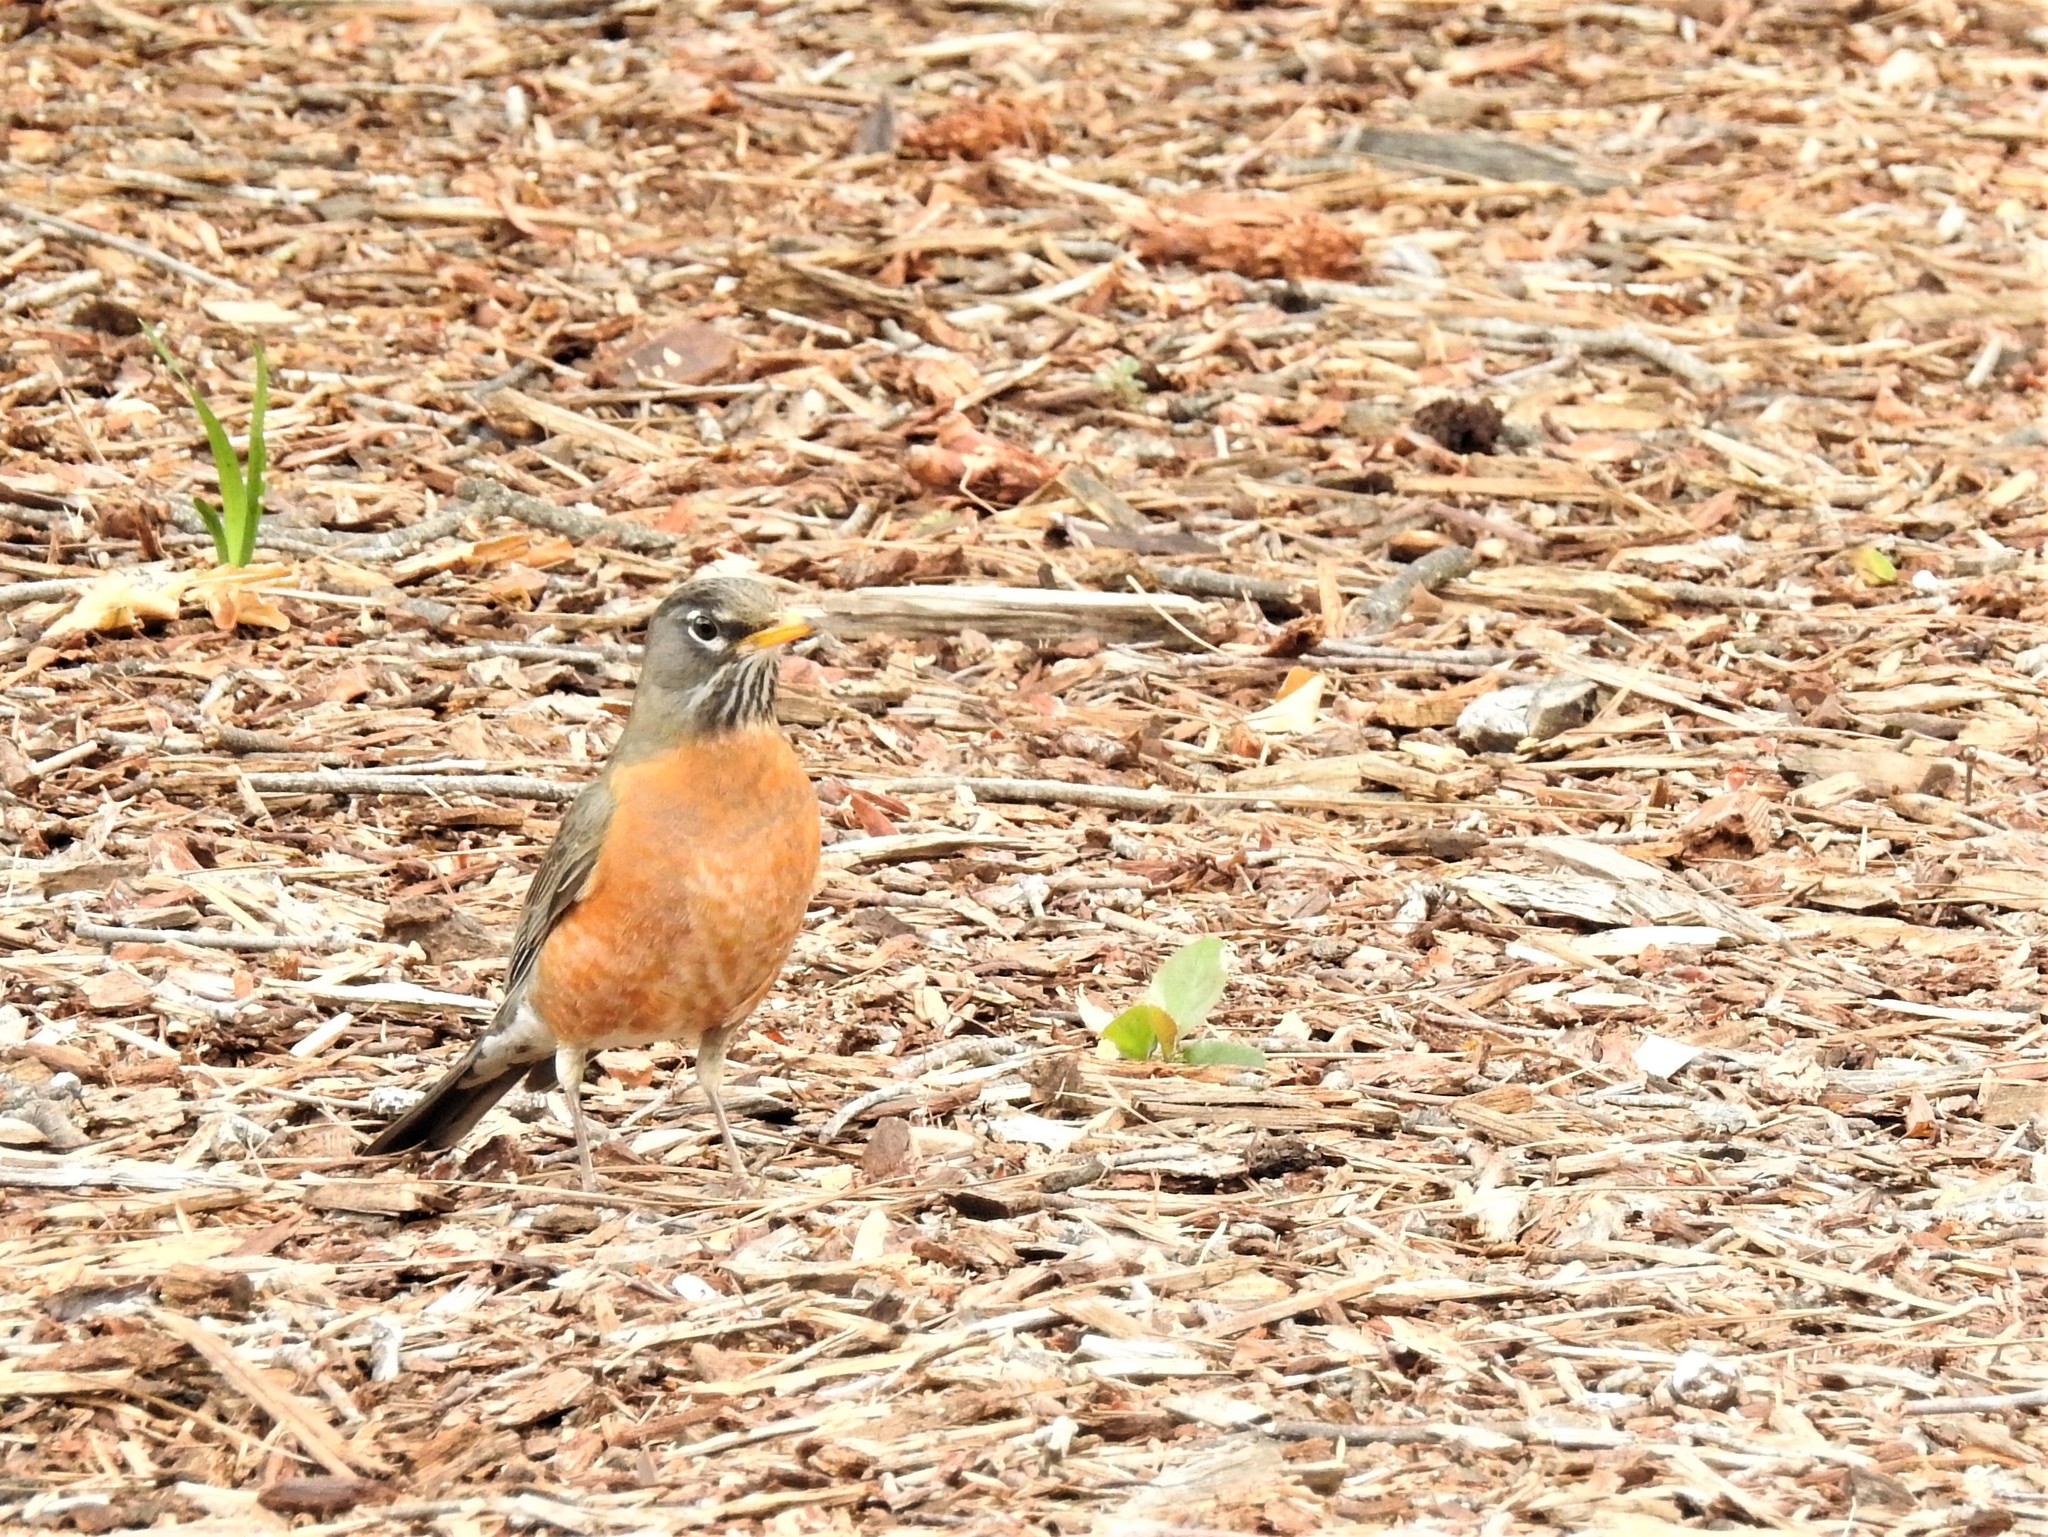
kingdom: Animalia
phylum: Chordata
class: Aves
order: Passeriformes
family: Turdidae
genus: Turdus
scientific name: Turdus migratorius
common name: American robin
